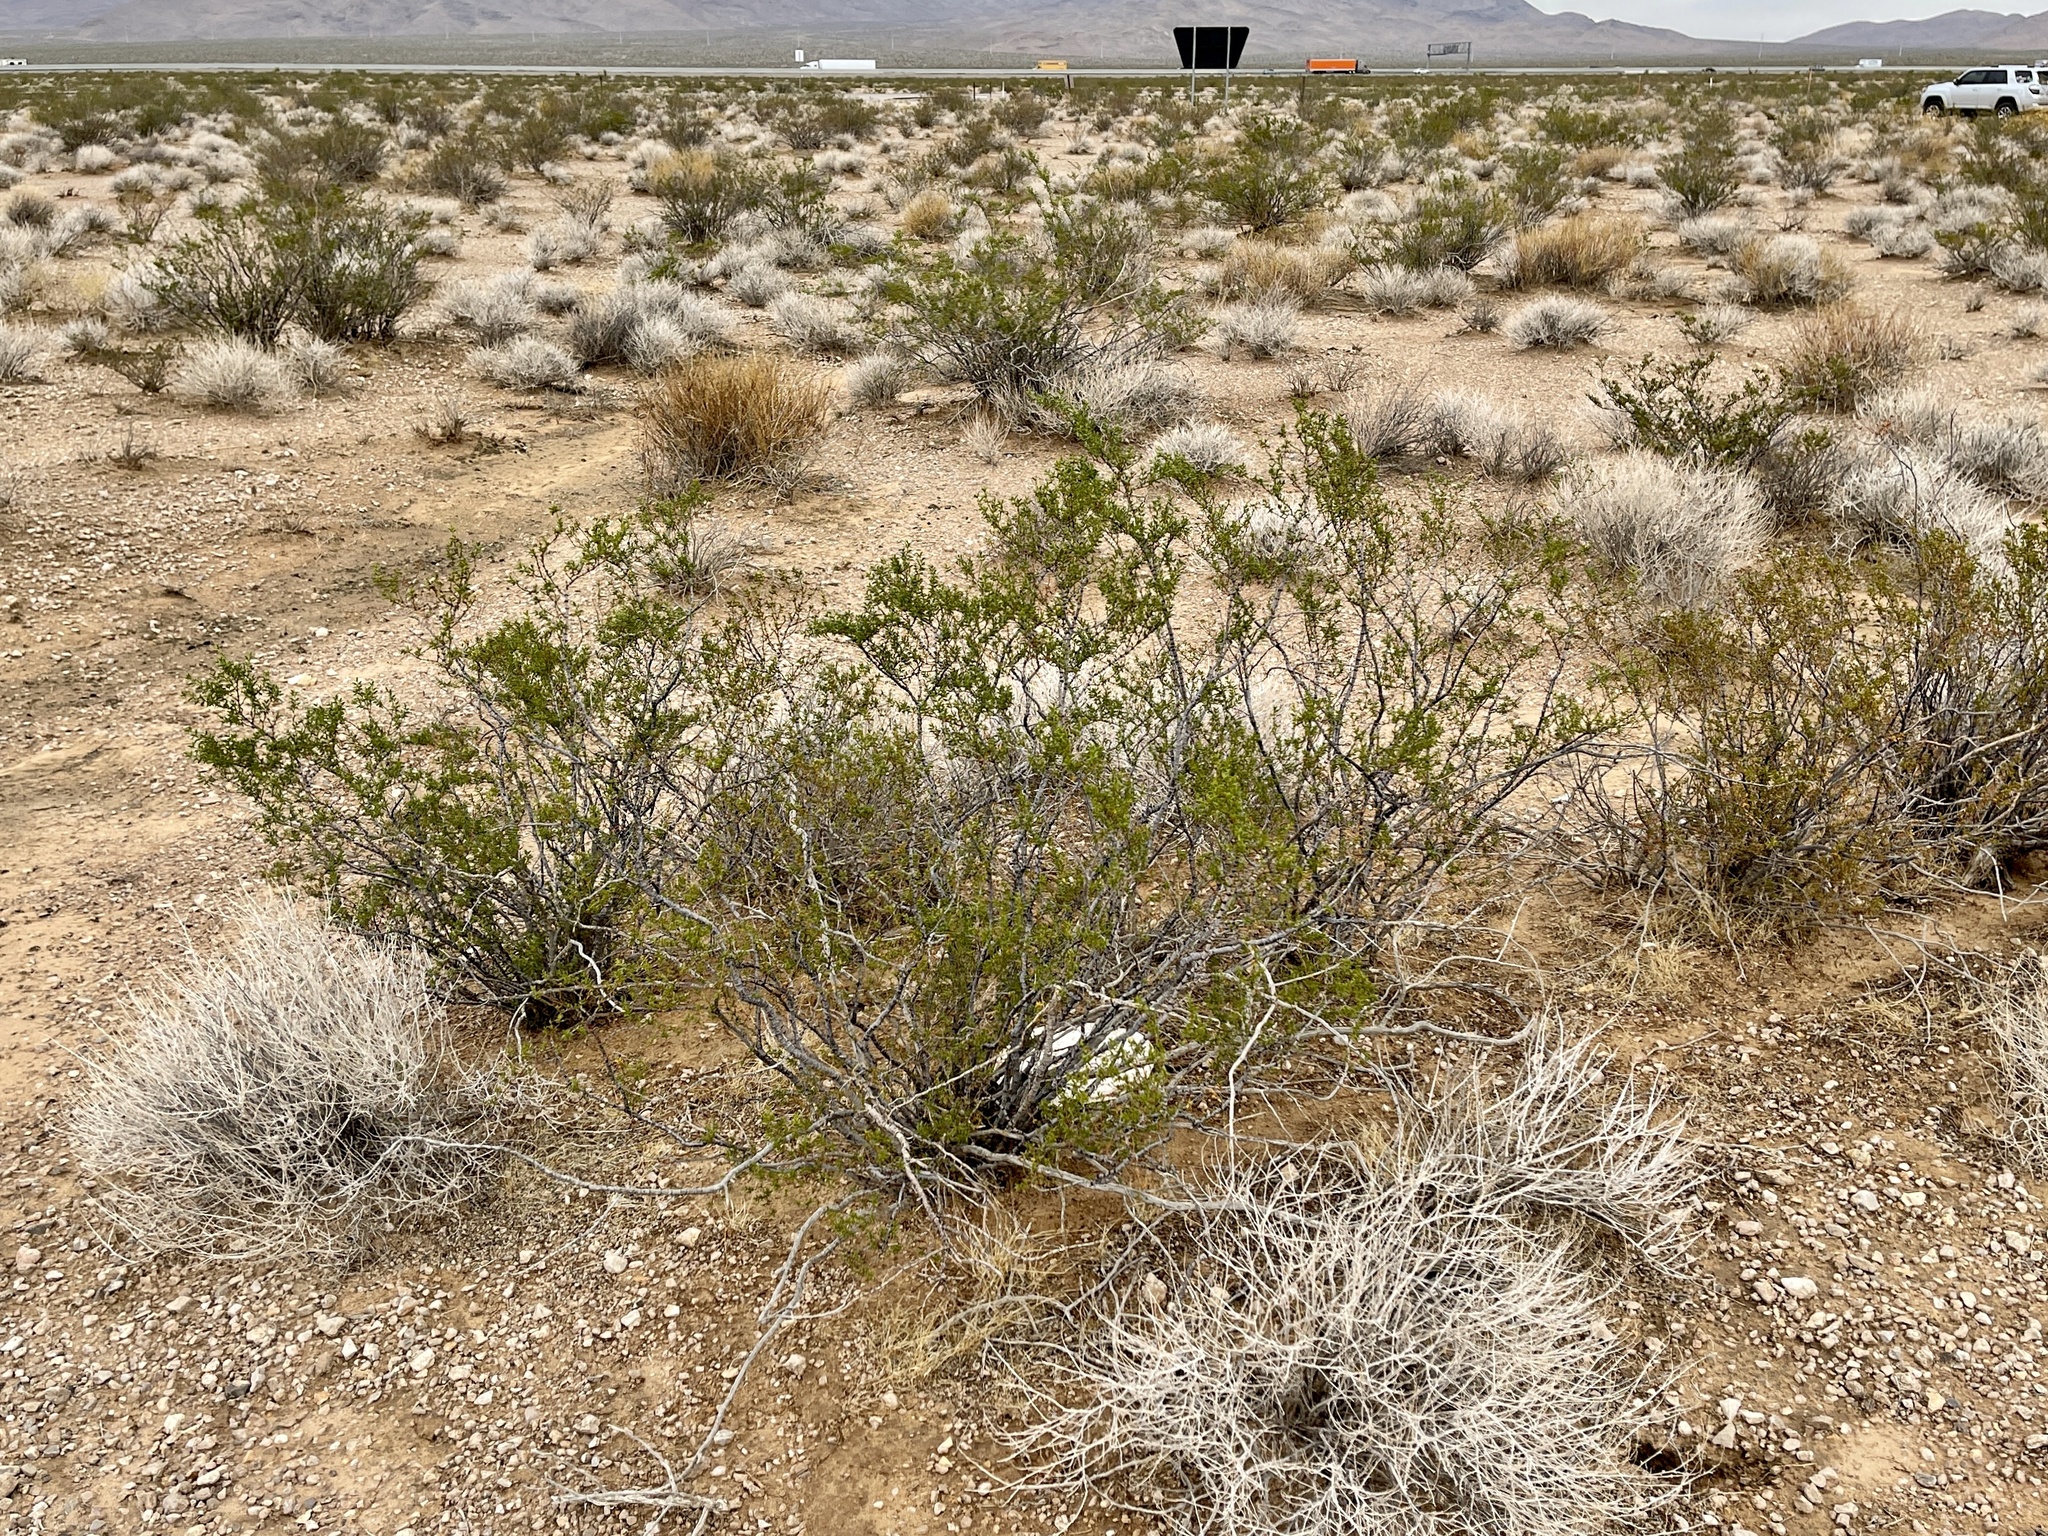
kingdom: Plantae
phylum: Tracheophyta
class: Magnoliopsida
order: Zygophyllales
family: Zygophyllaceae
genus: Larrea
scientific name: Larrea tridentata
